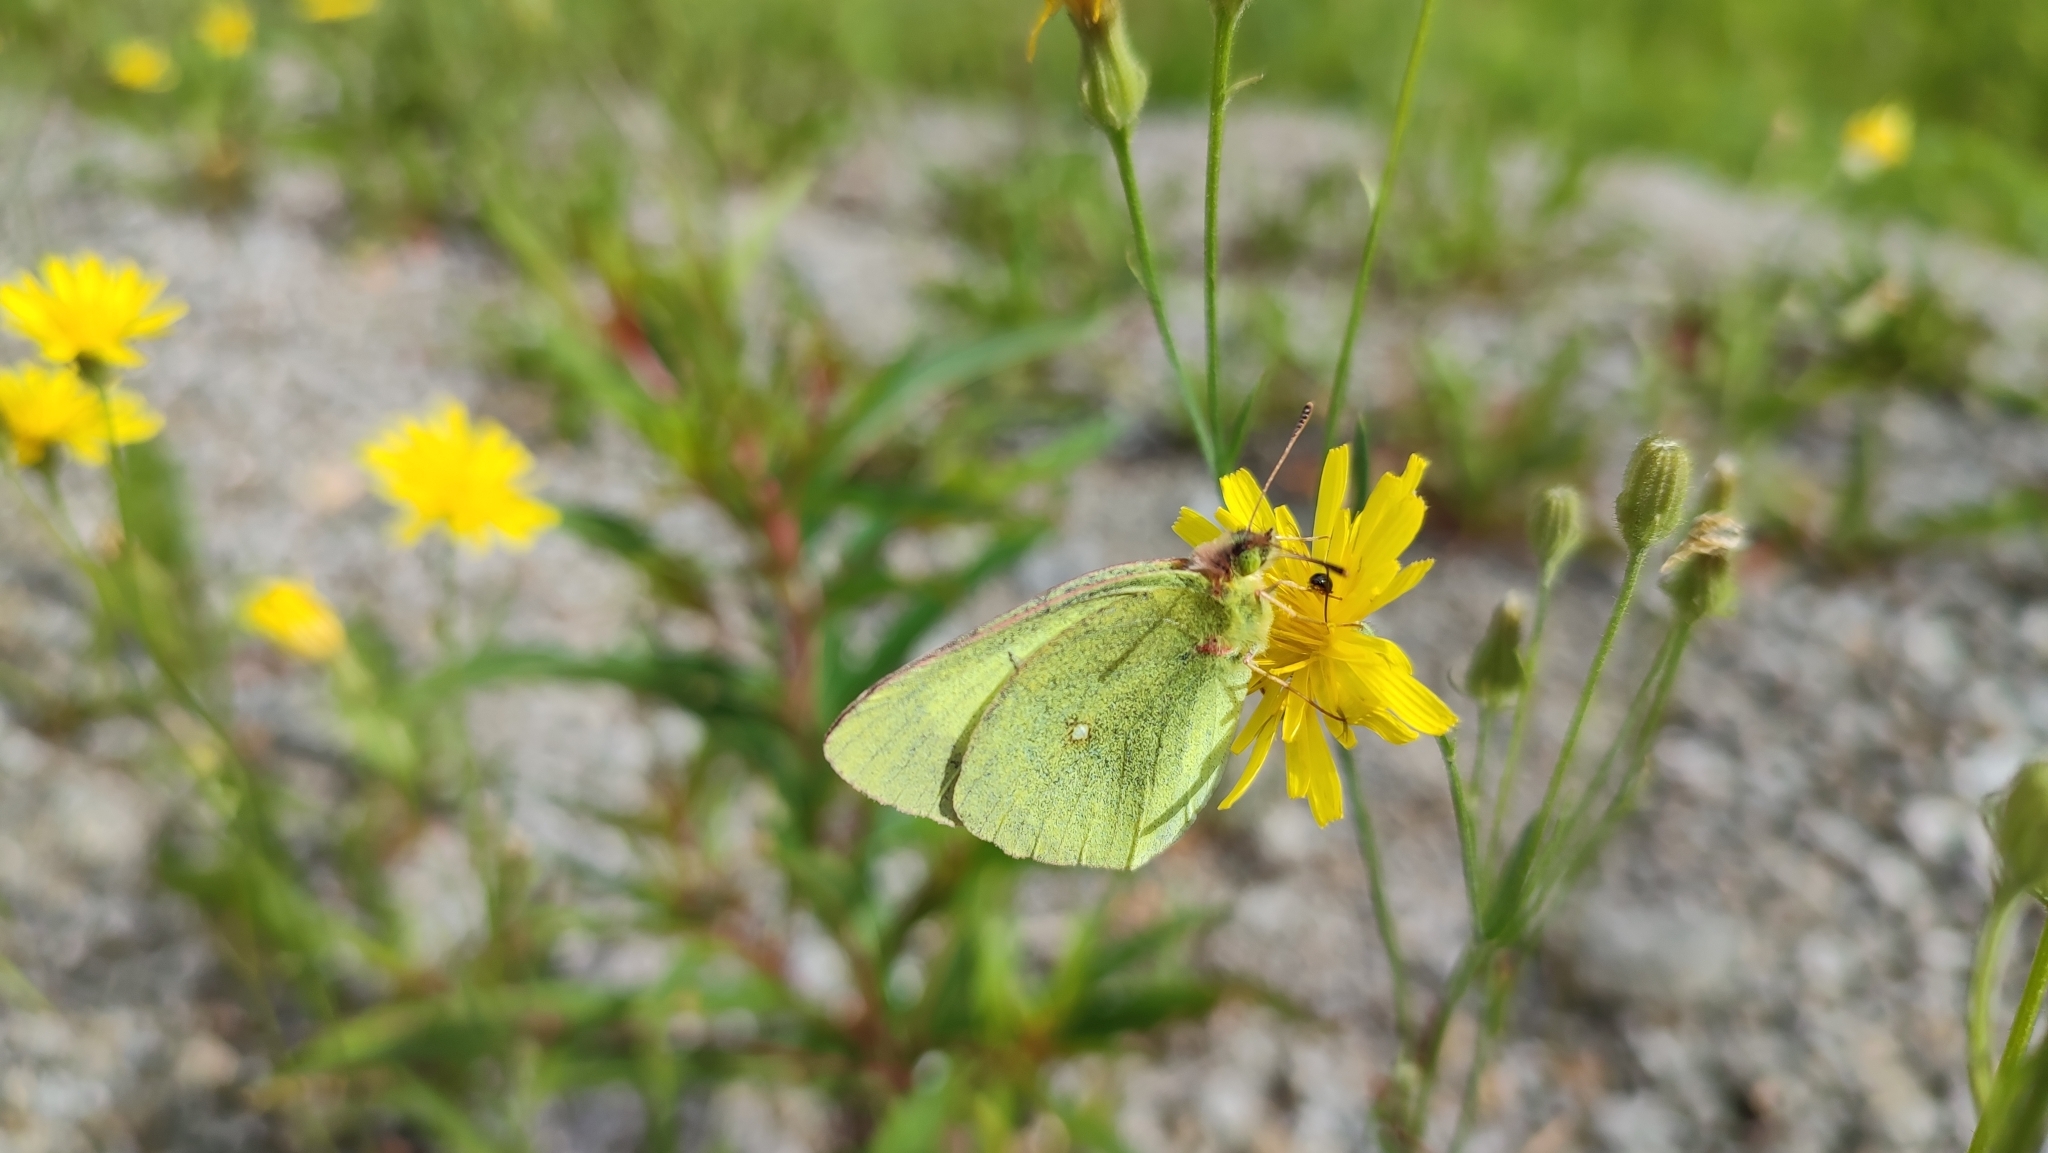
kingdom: Animalia
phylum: Arthropoda
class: Insecta
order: Lepidoptera
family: Pieridae
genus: Colias
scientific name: Colias palaeno
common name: Moorland clouded yellow
